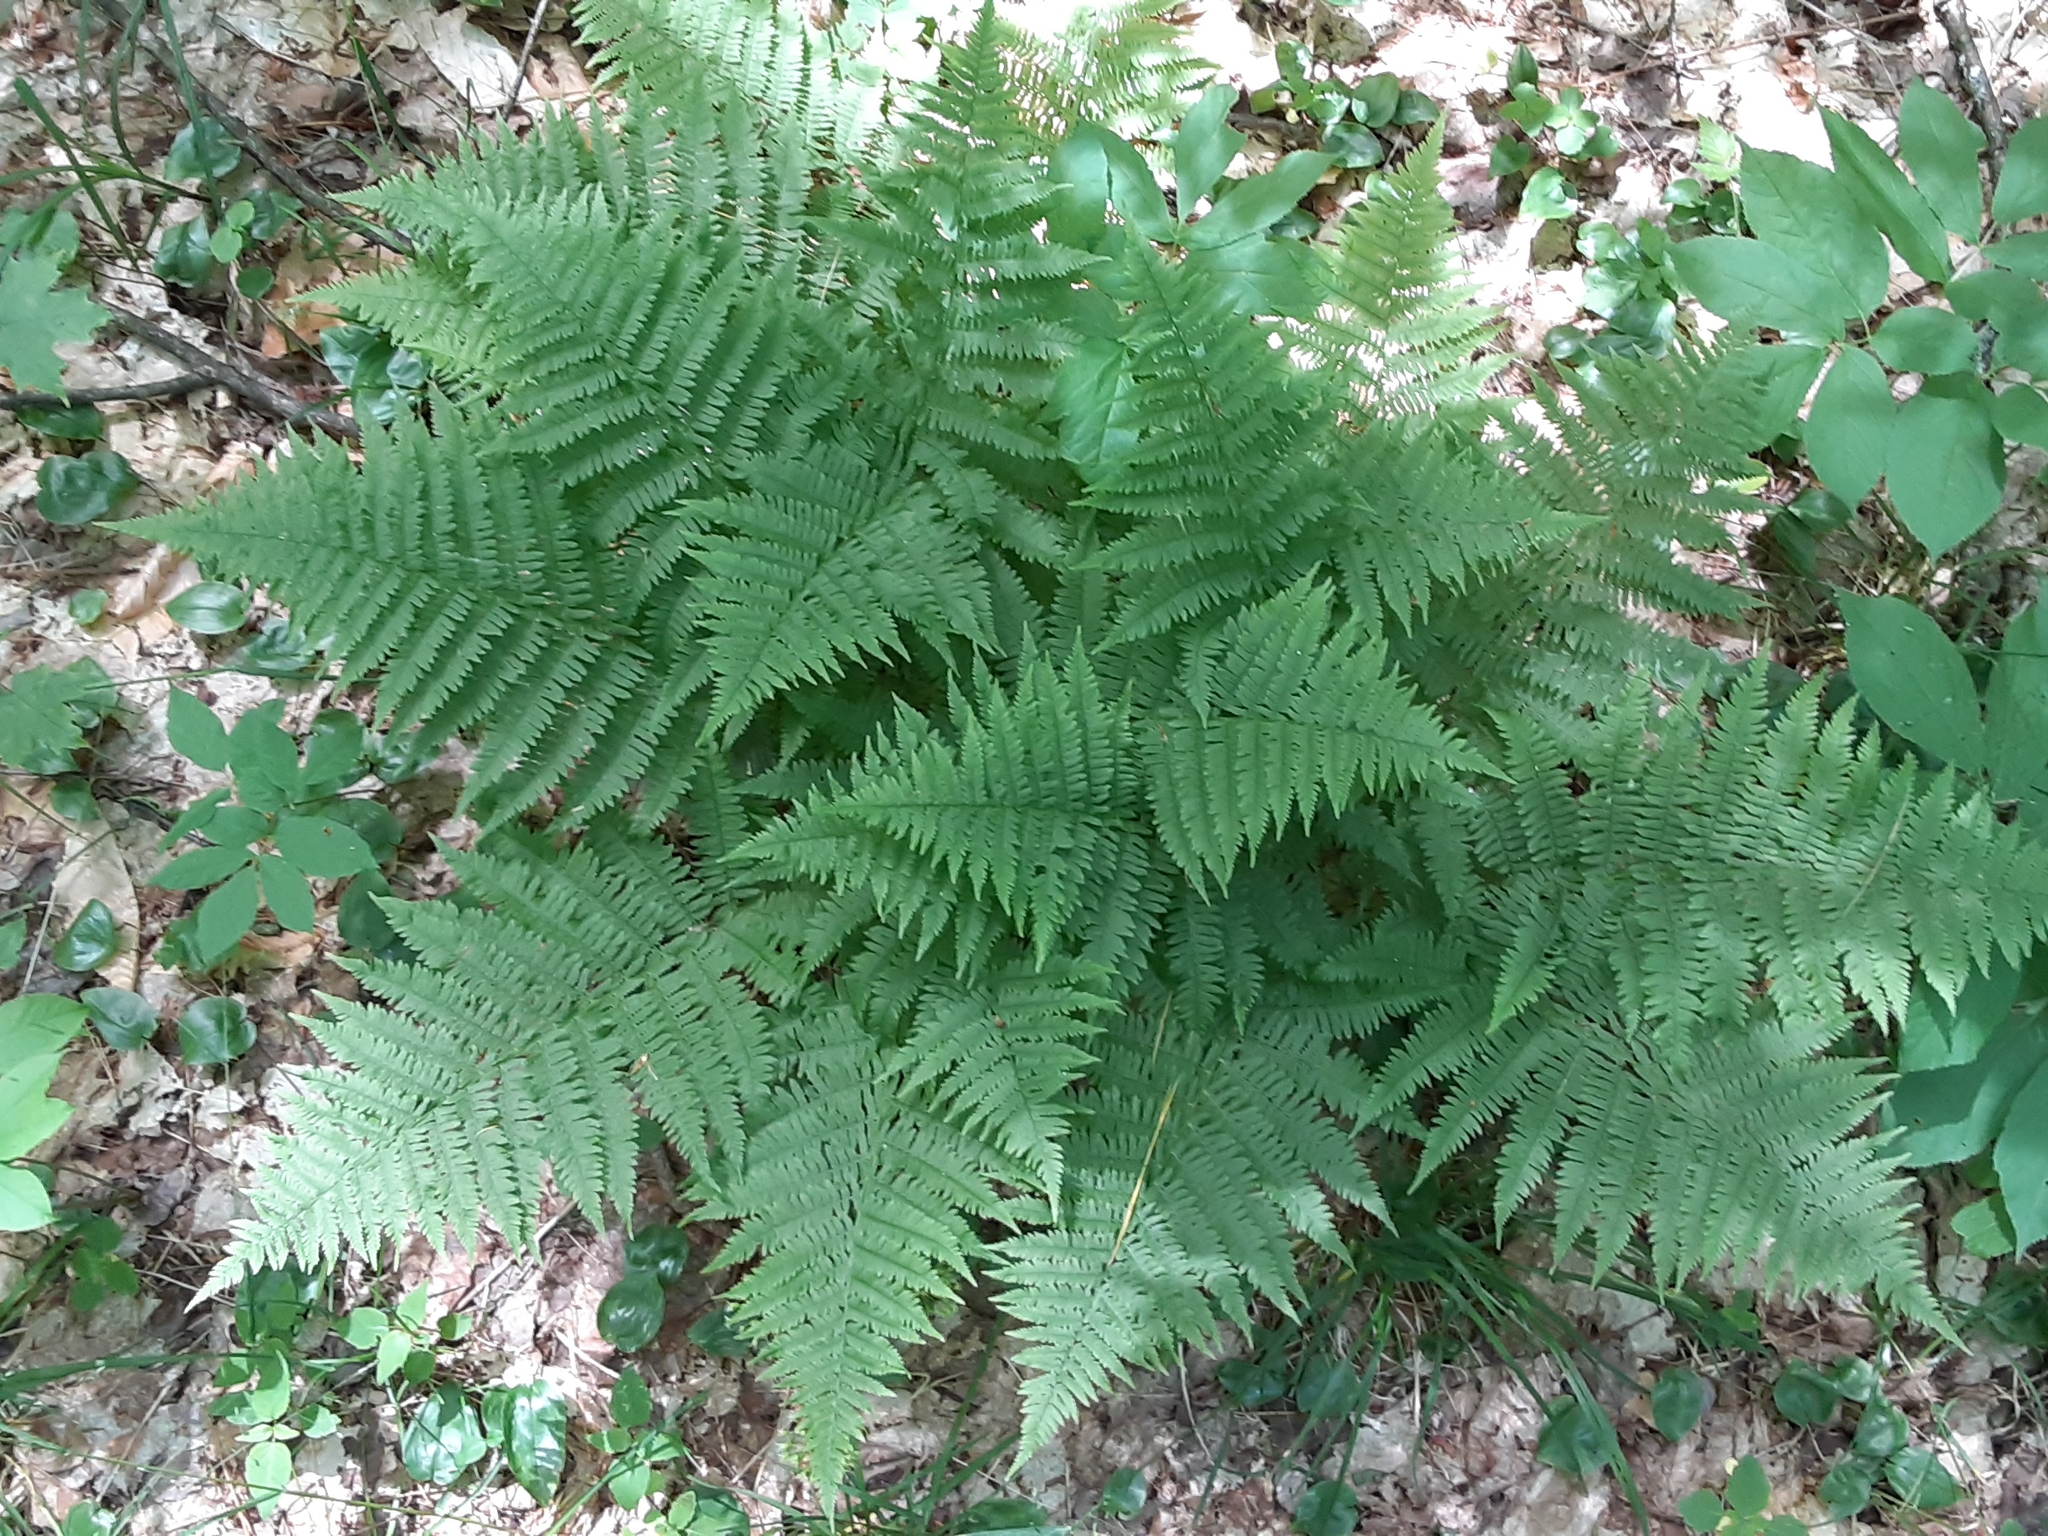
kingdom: Plantae
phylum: Tracheophyta
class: Polypodiopsida
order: Polypodiales
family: Athyriaceae
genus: Athyrium
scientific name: Athyrium angustum
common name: Northern lady fern
